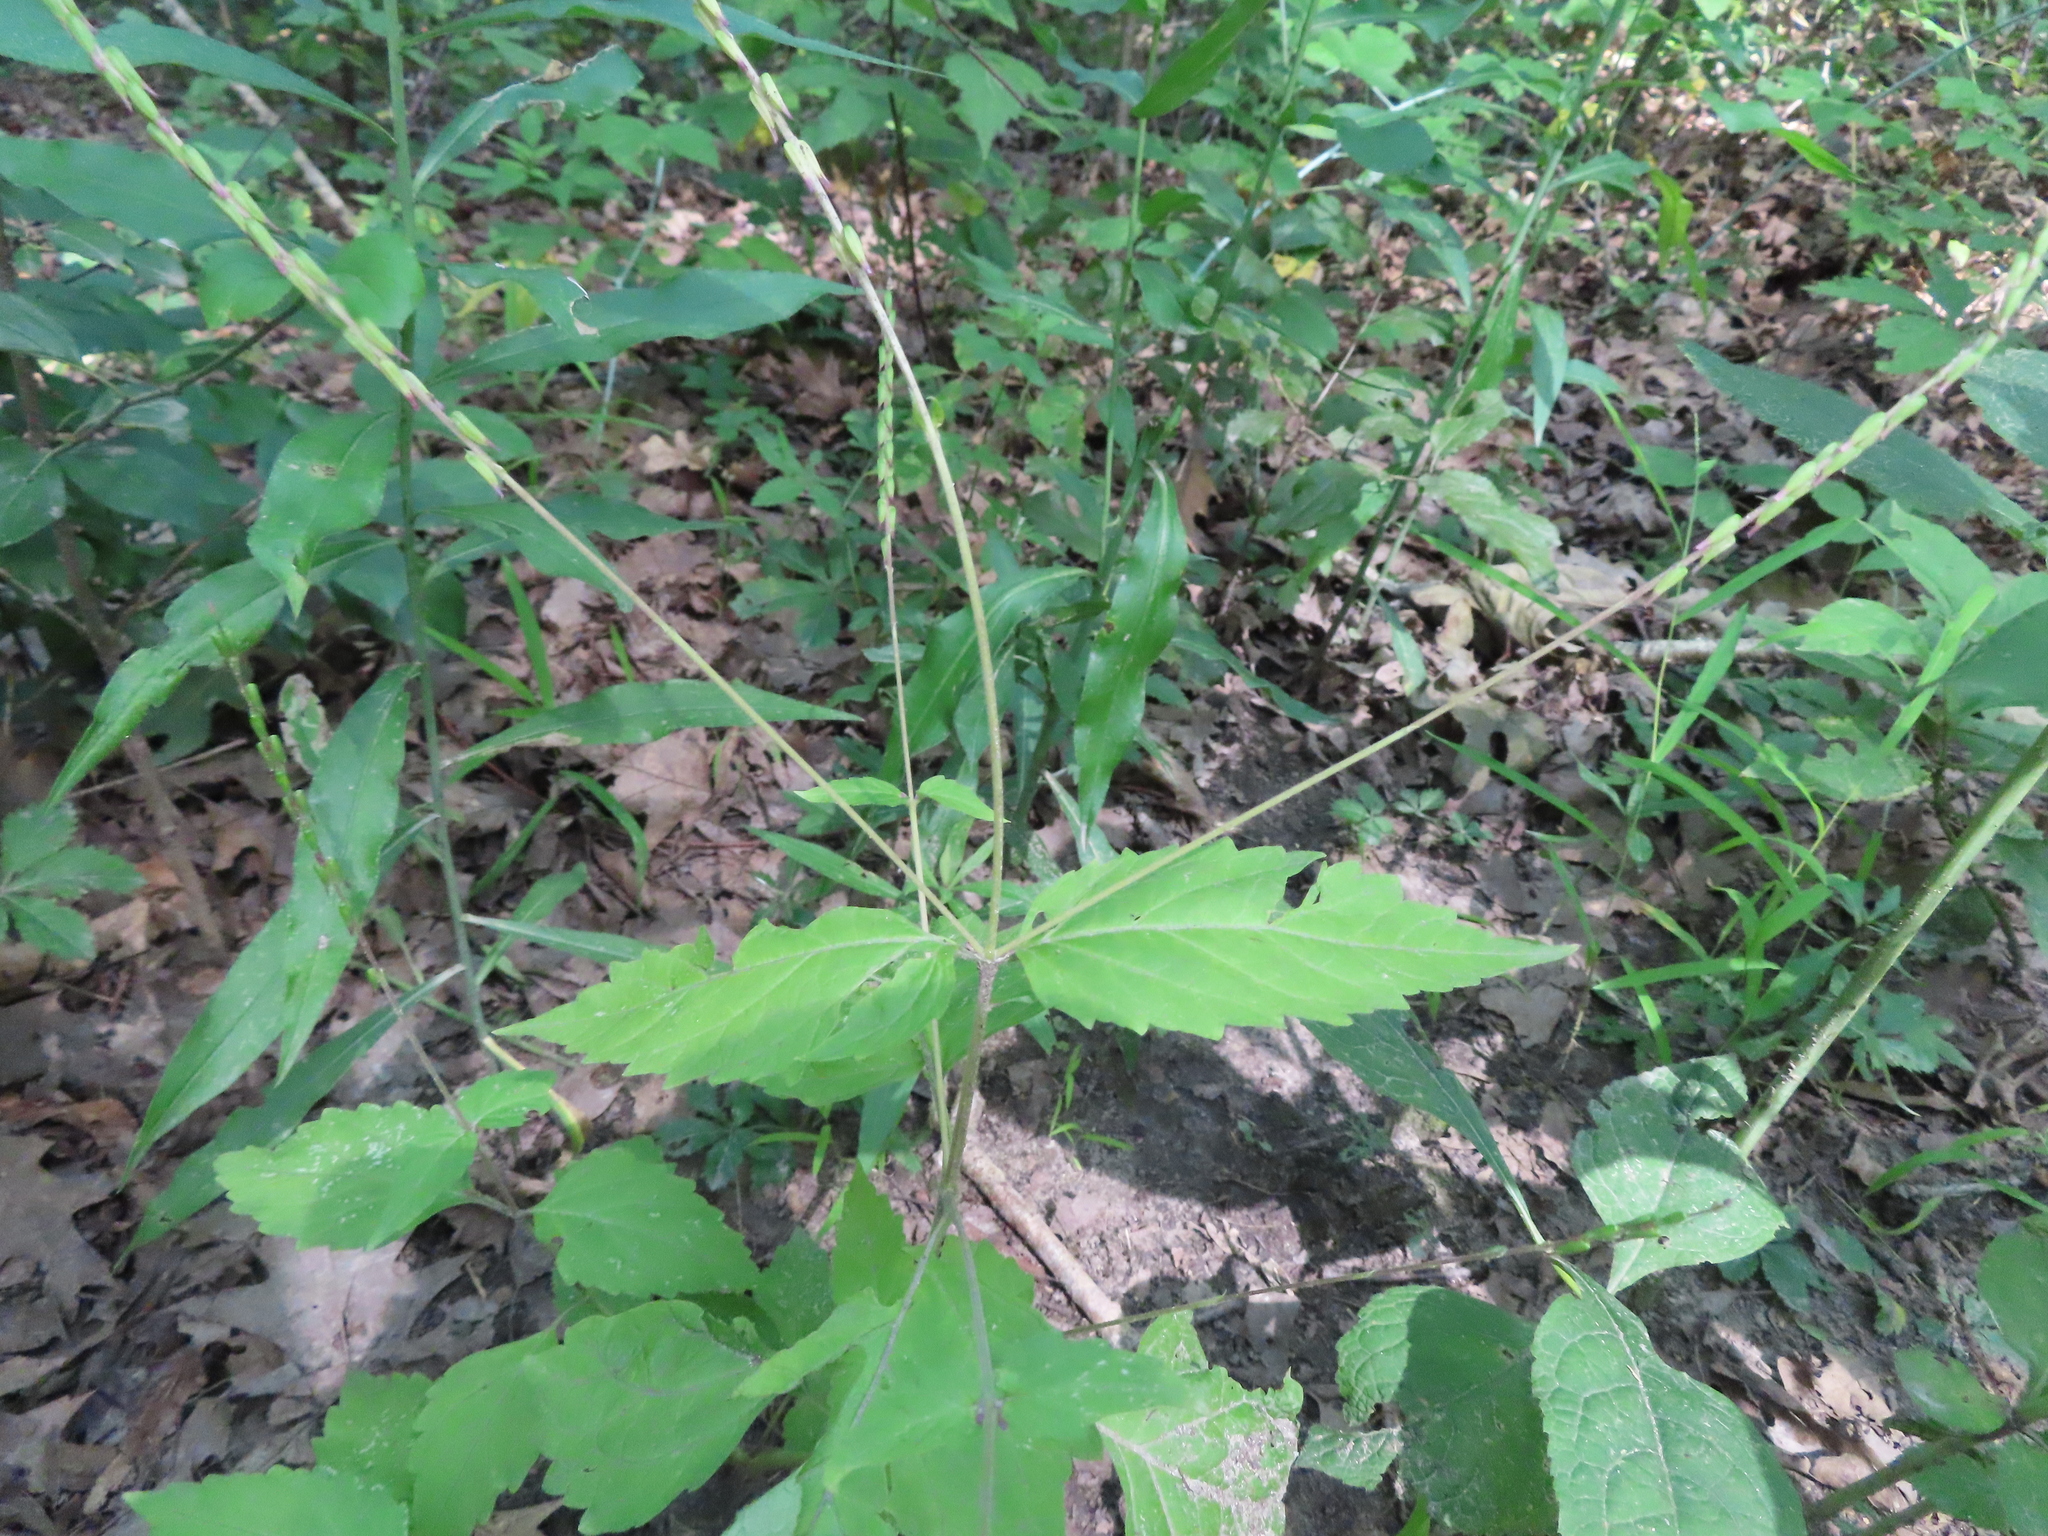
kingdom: Plantae
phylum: Tracheophyta
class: Magnoliopsida
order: Lamiales
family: Phrymaceae
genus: Phryma
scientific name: Phryma leptostachya
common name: American lopseed
